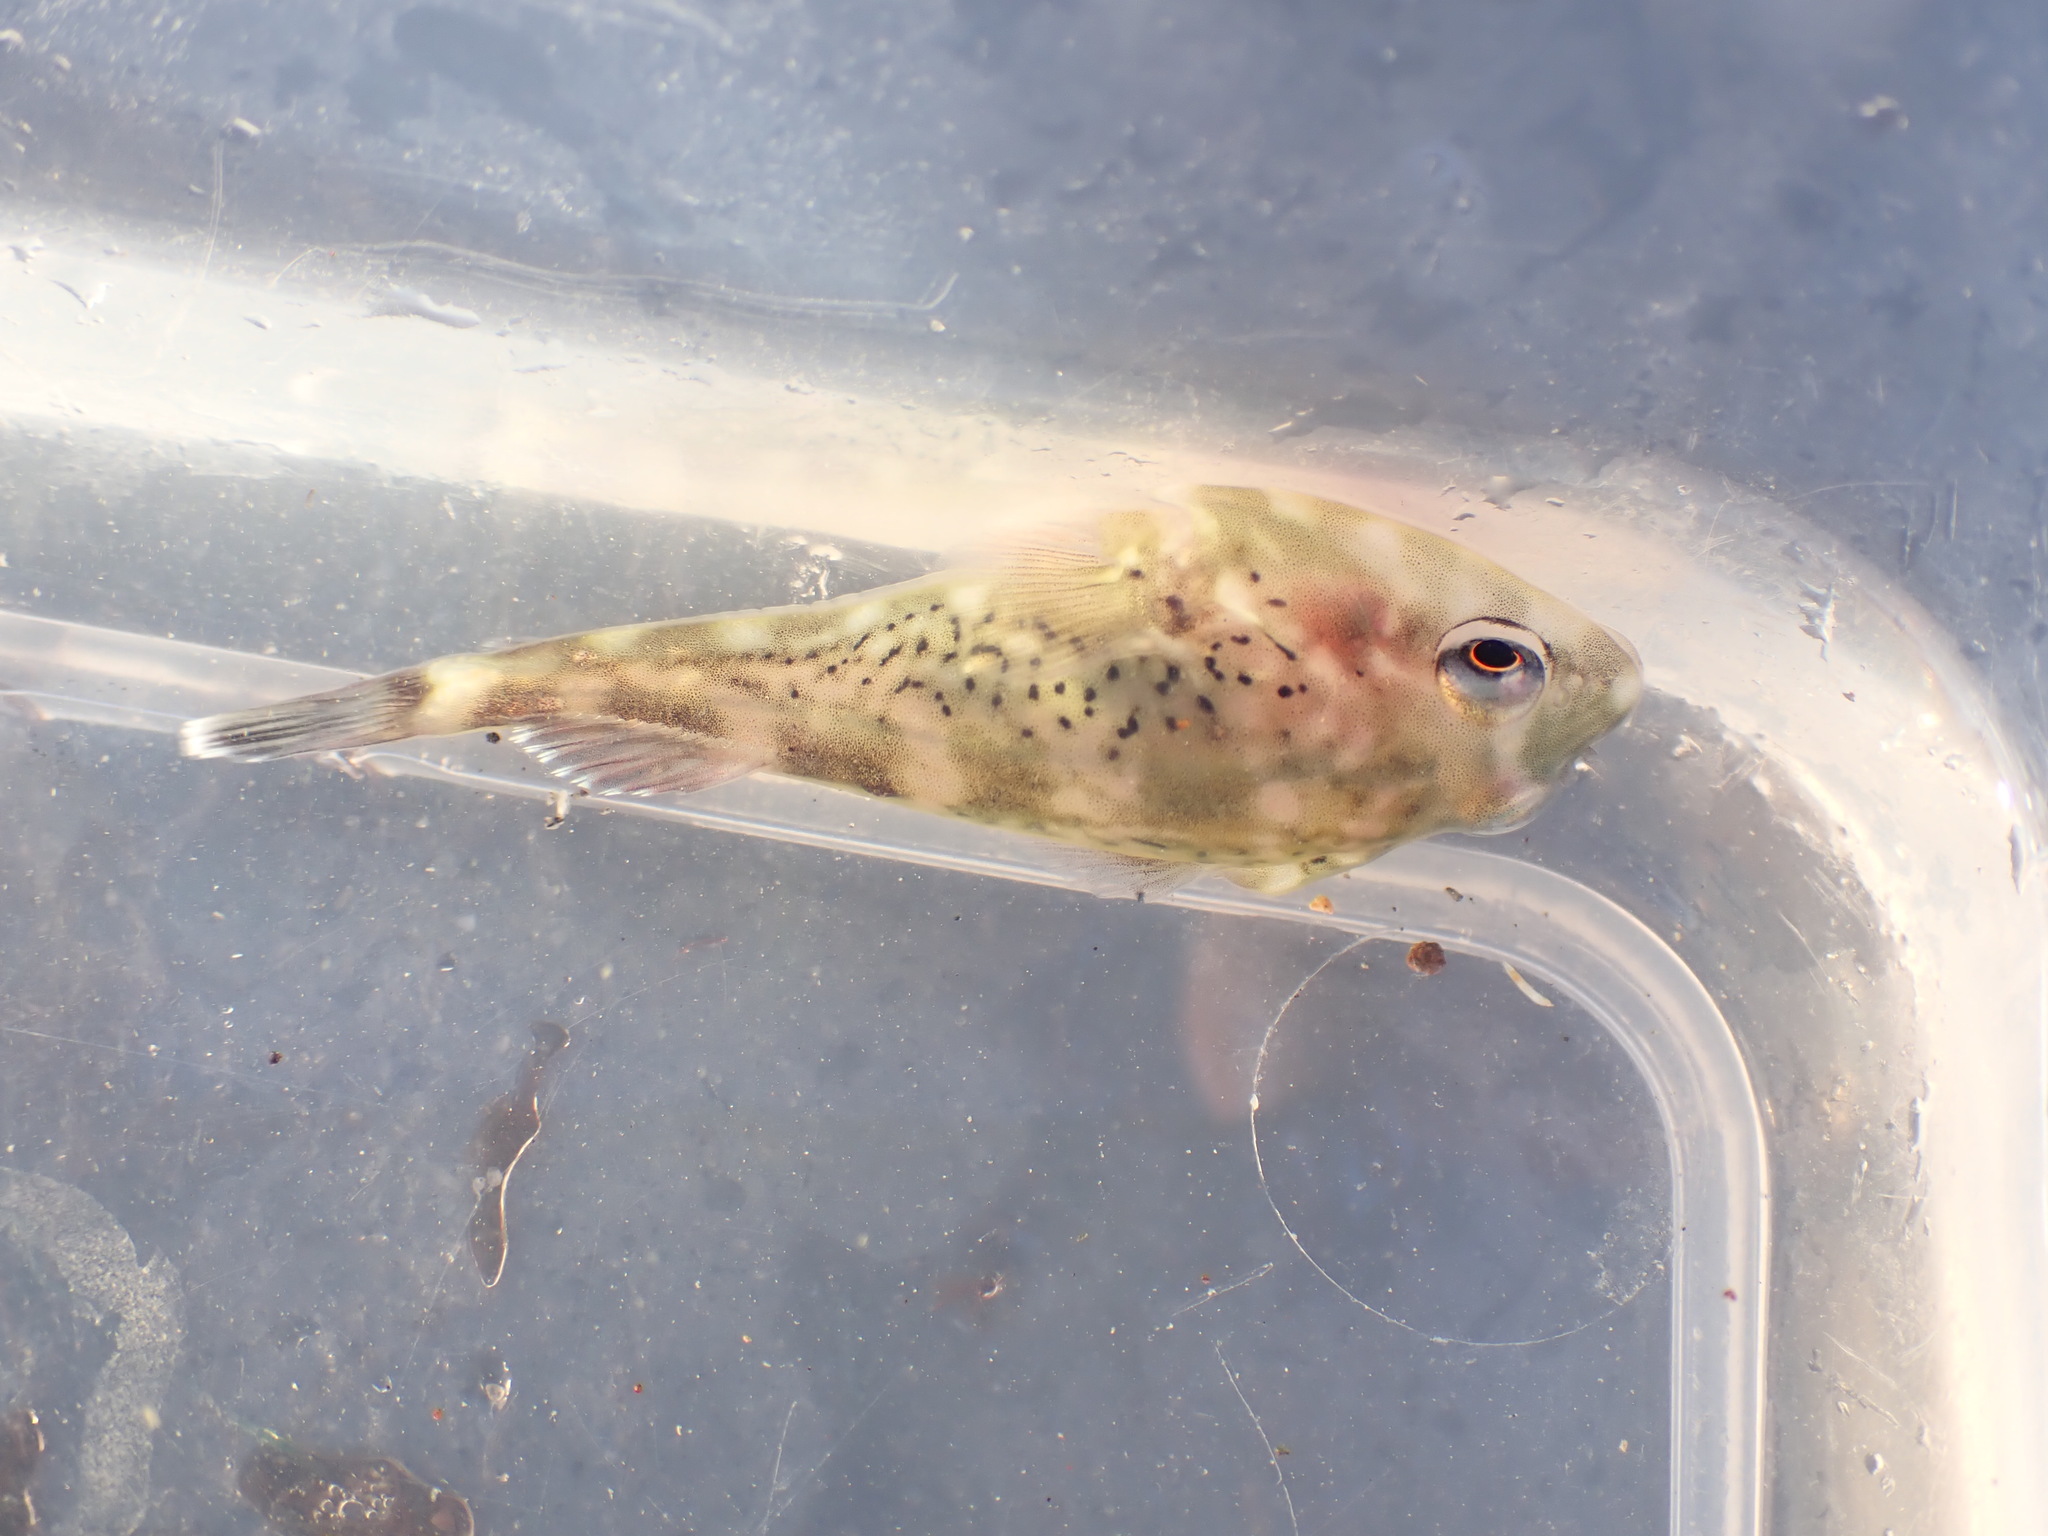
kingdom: Animalia
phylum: Chordata
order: Gobiesociformes
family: Gobiesocidae
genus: Diplocrepis
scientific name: Diplocrepis puniceus
